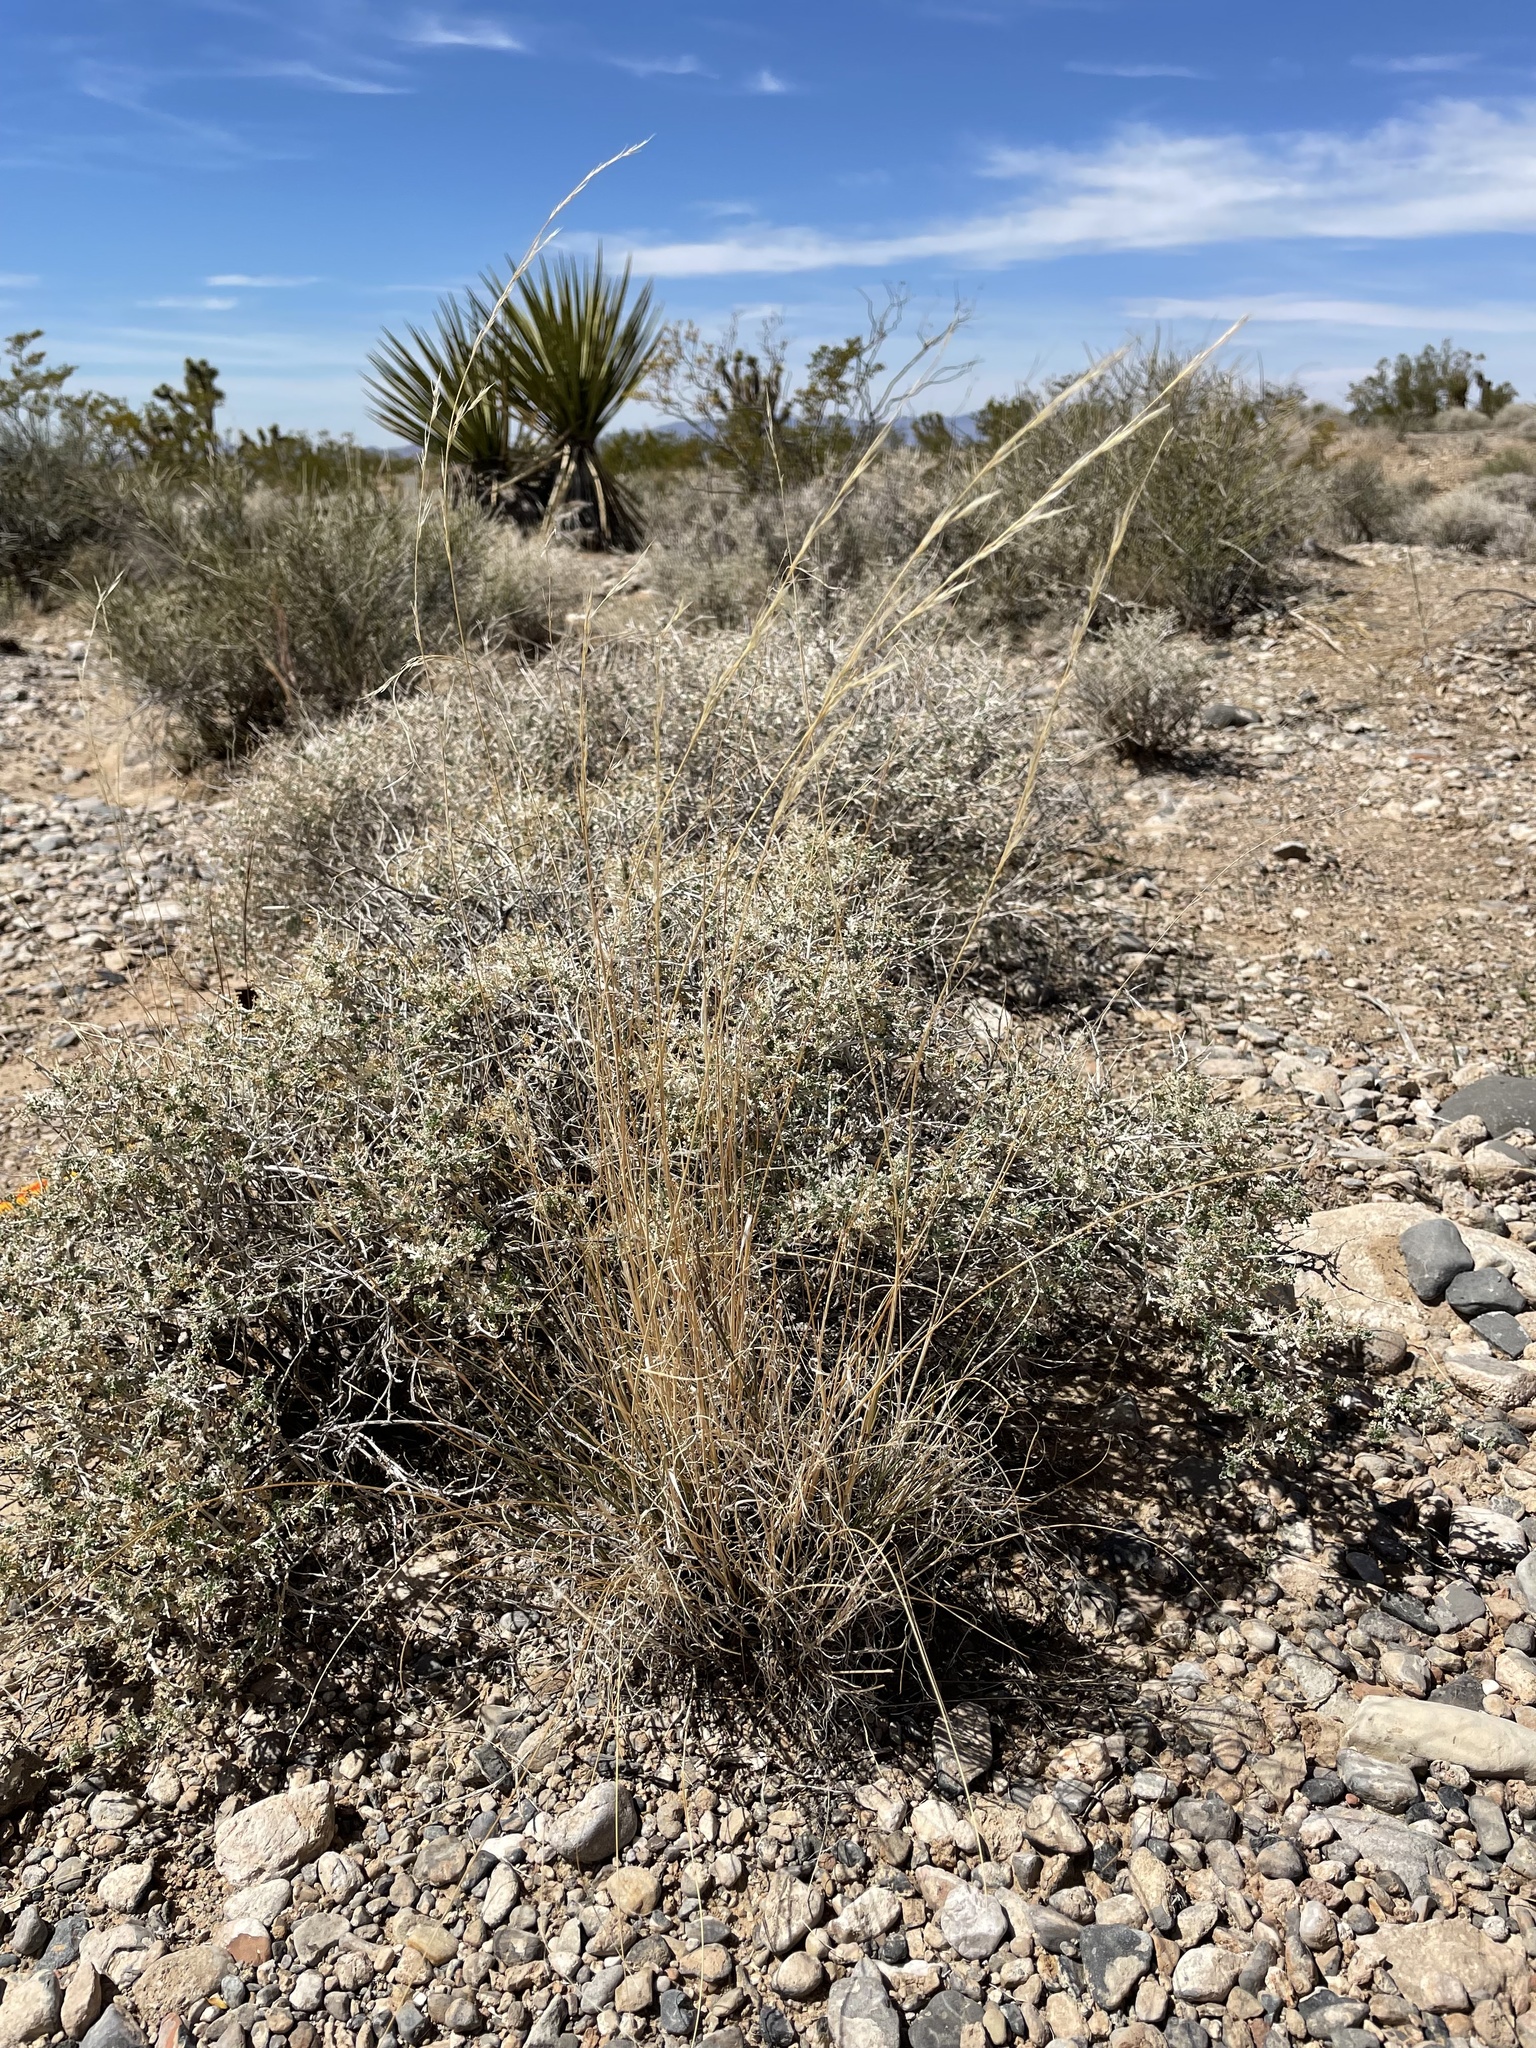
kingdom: Plantae
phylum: Tracheophyta
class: Liliopsida
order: Poales
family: Poaceae
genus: Aristida
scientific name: Aristida purpurea
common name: Purple threeawn
